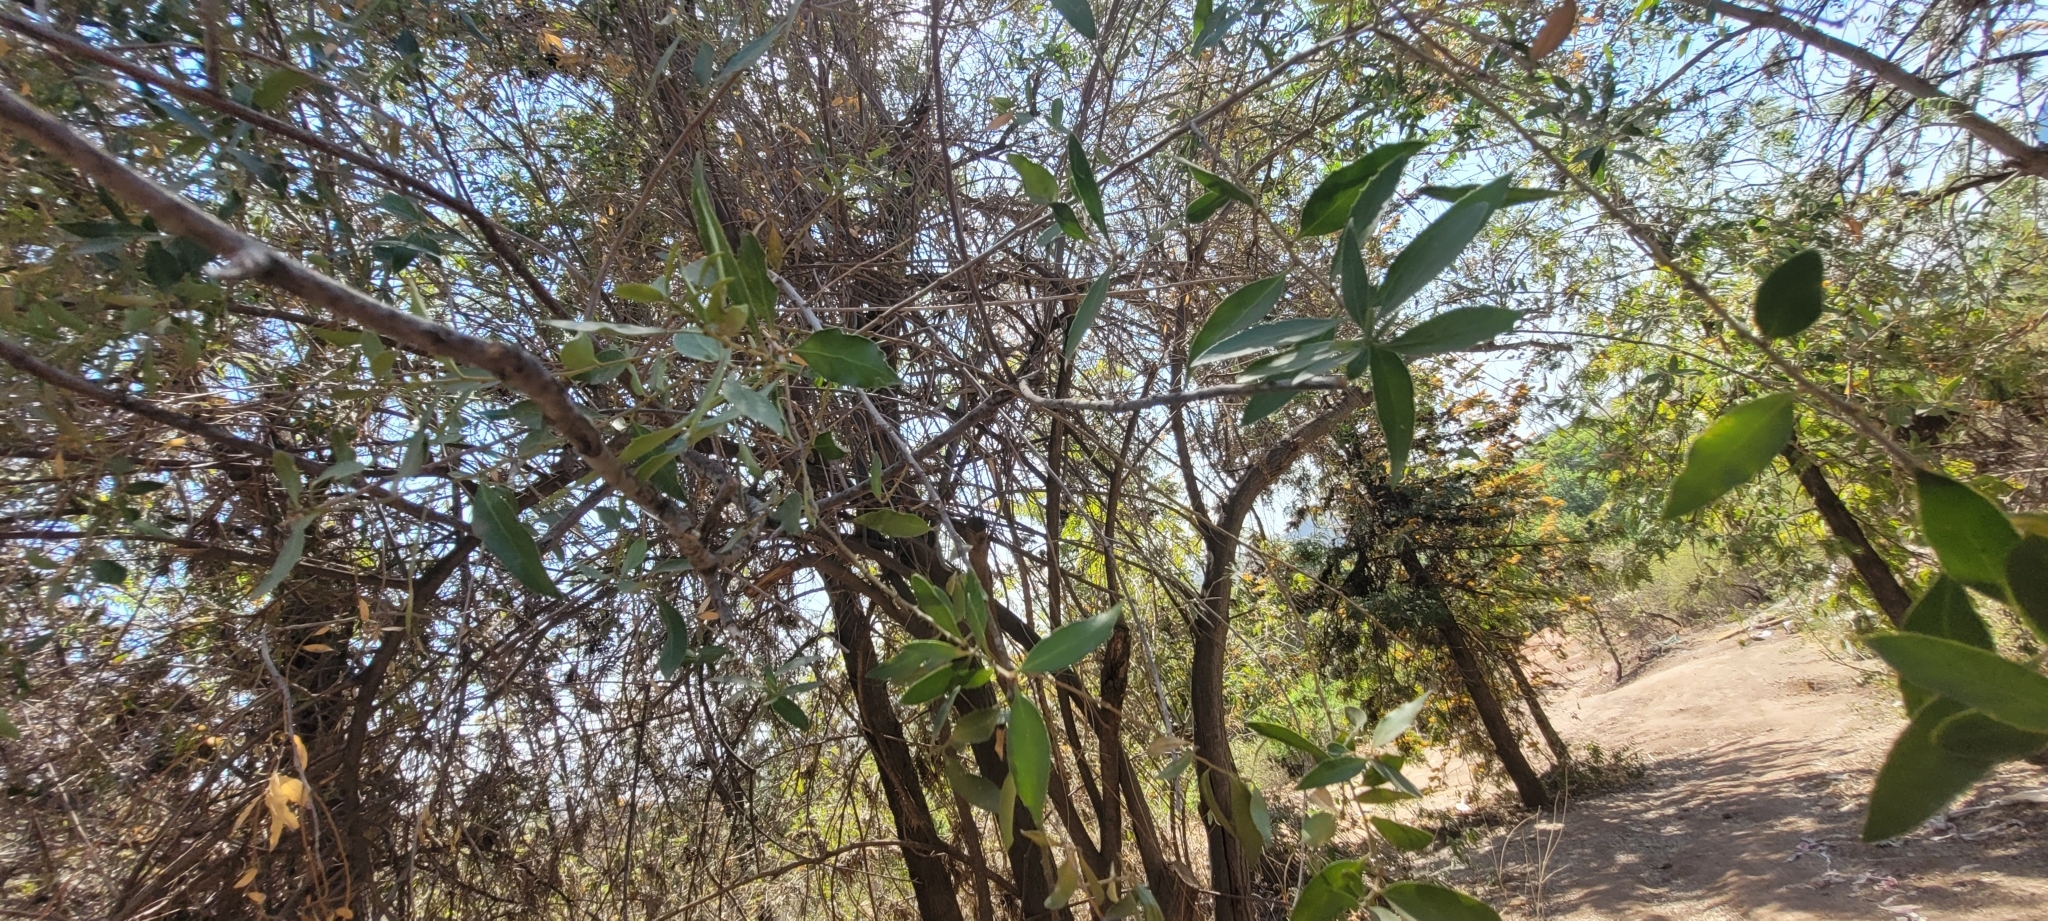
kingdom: Plantae
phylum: Tracheophyta
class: Magnoliopsida
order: Celastrales
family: Celastraceae
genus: Maytenus
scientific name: Maytenus boaria
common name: Mayten
